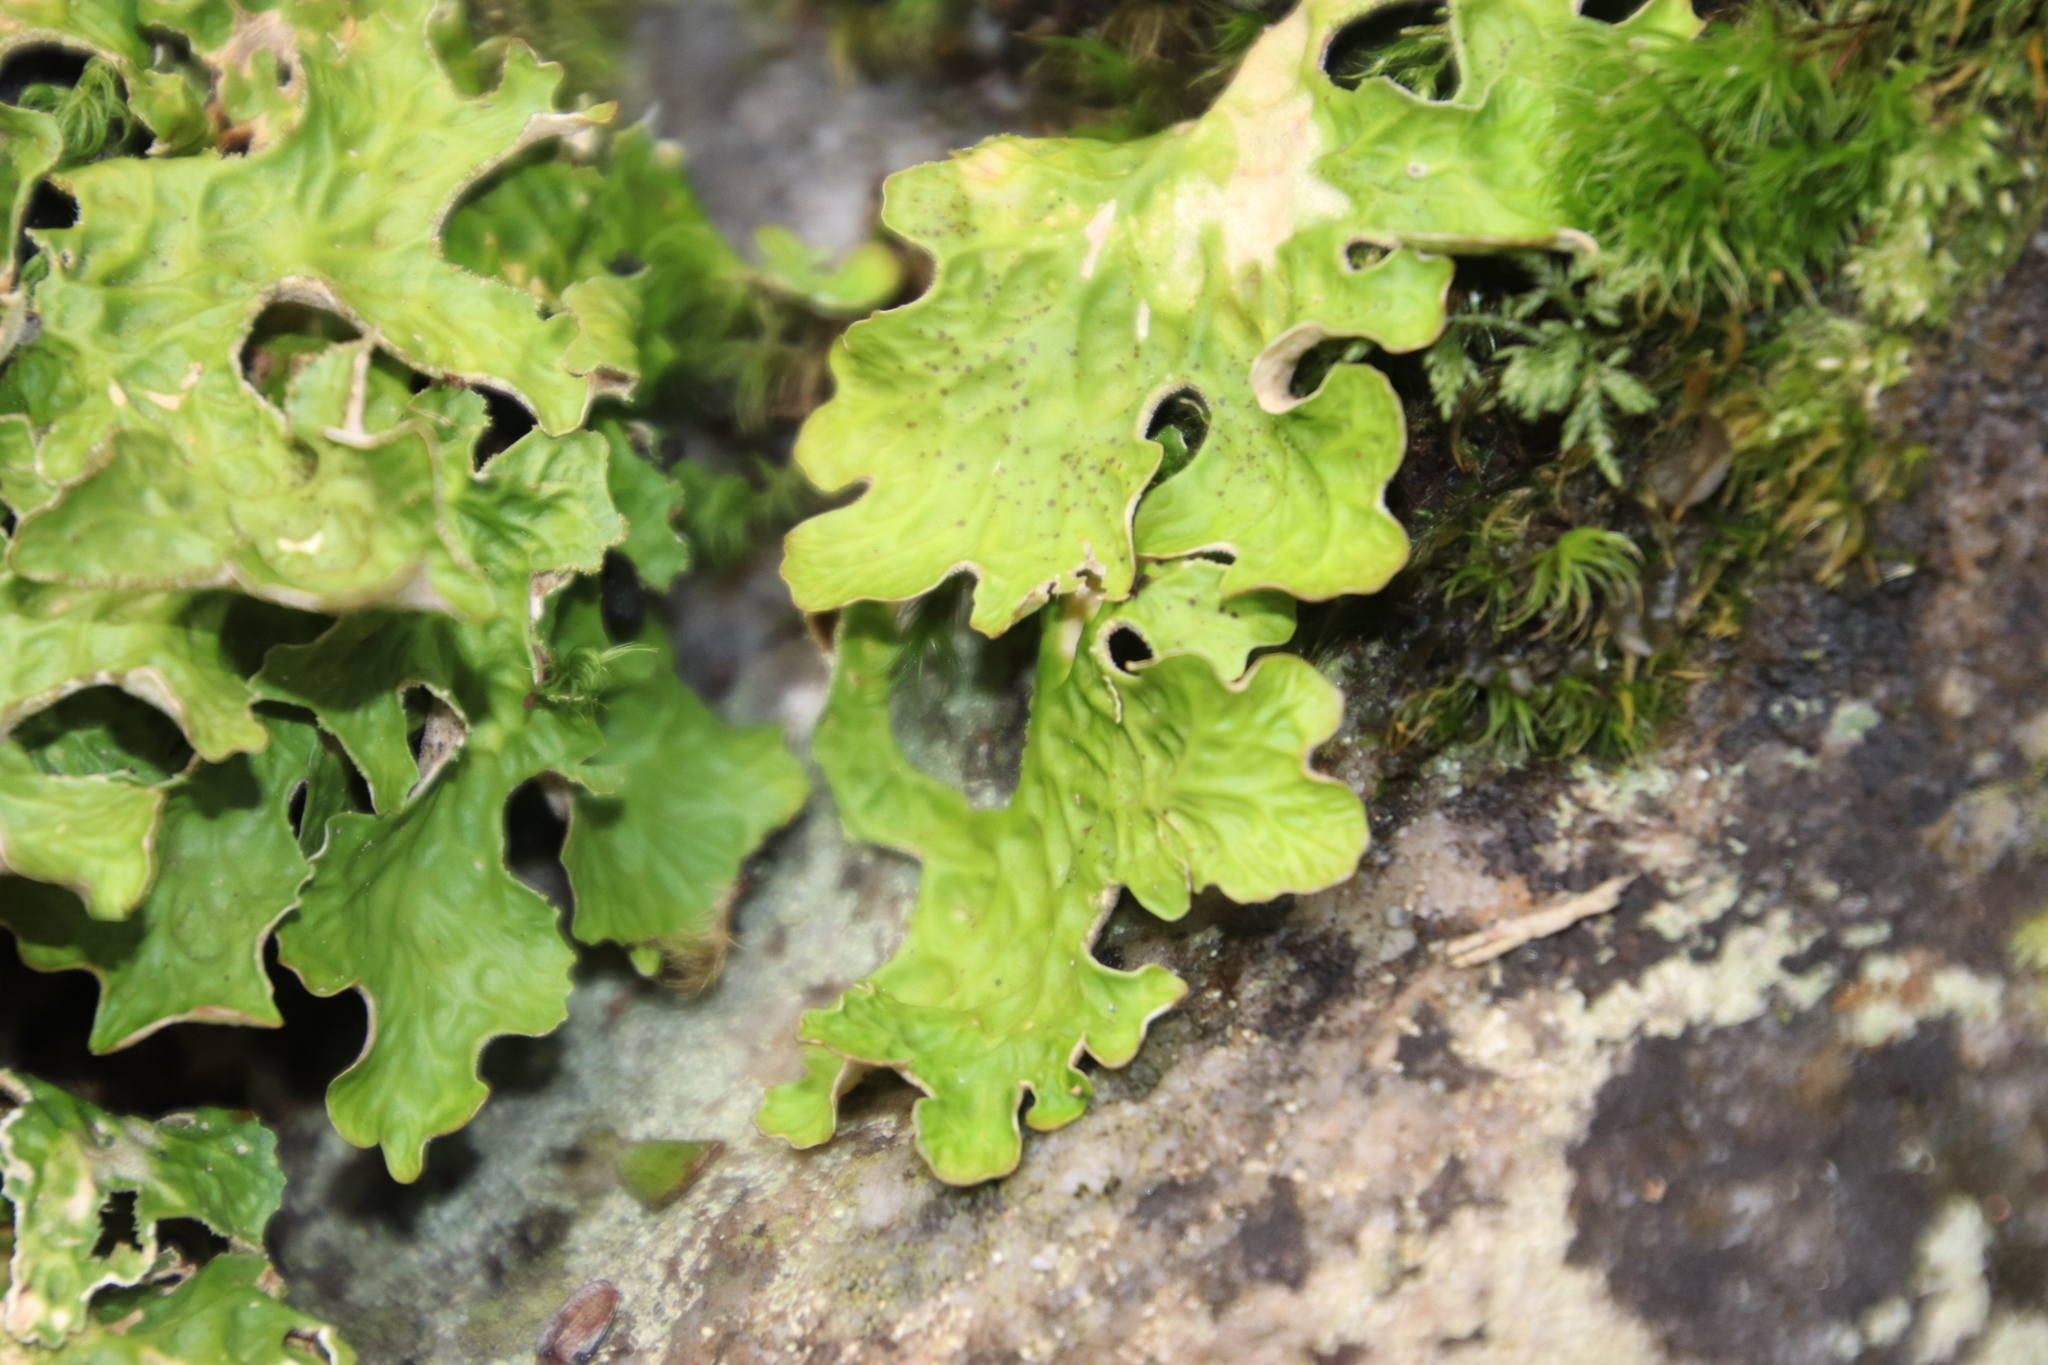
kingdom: Fungi
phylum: Ascomycota
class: Lecanoromycetes
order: Peltigerales
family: Lobariaceae
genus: Lobaria
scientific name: Lobaria pulmonaria
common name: Lungwort
